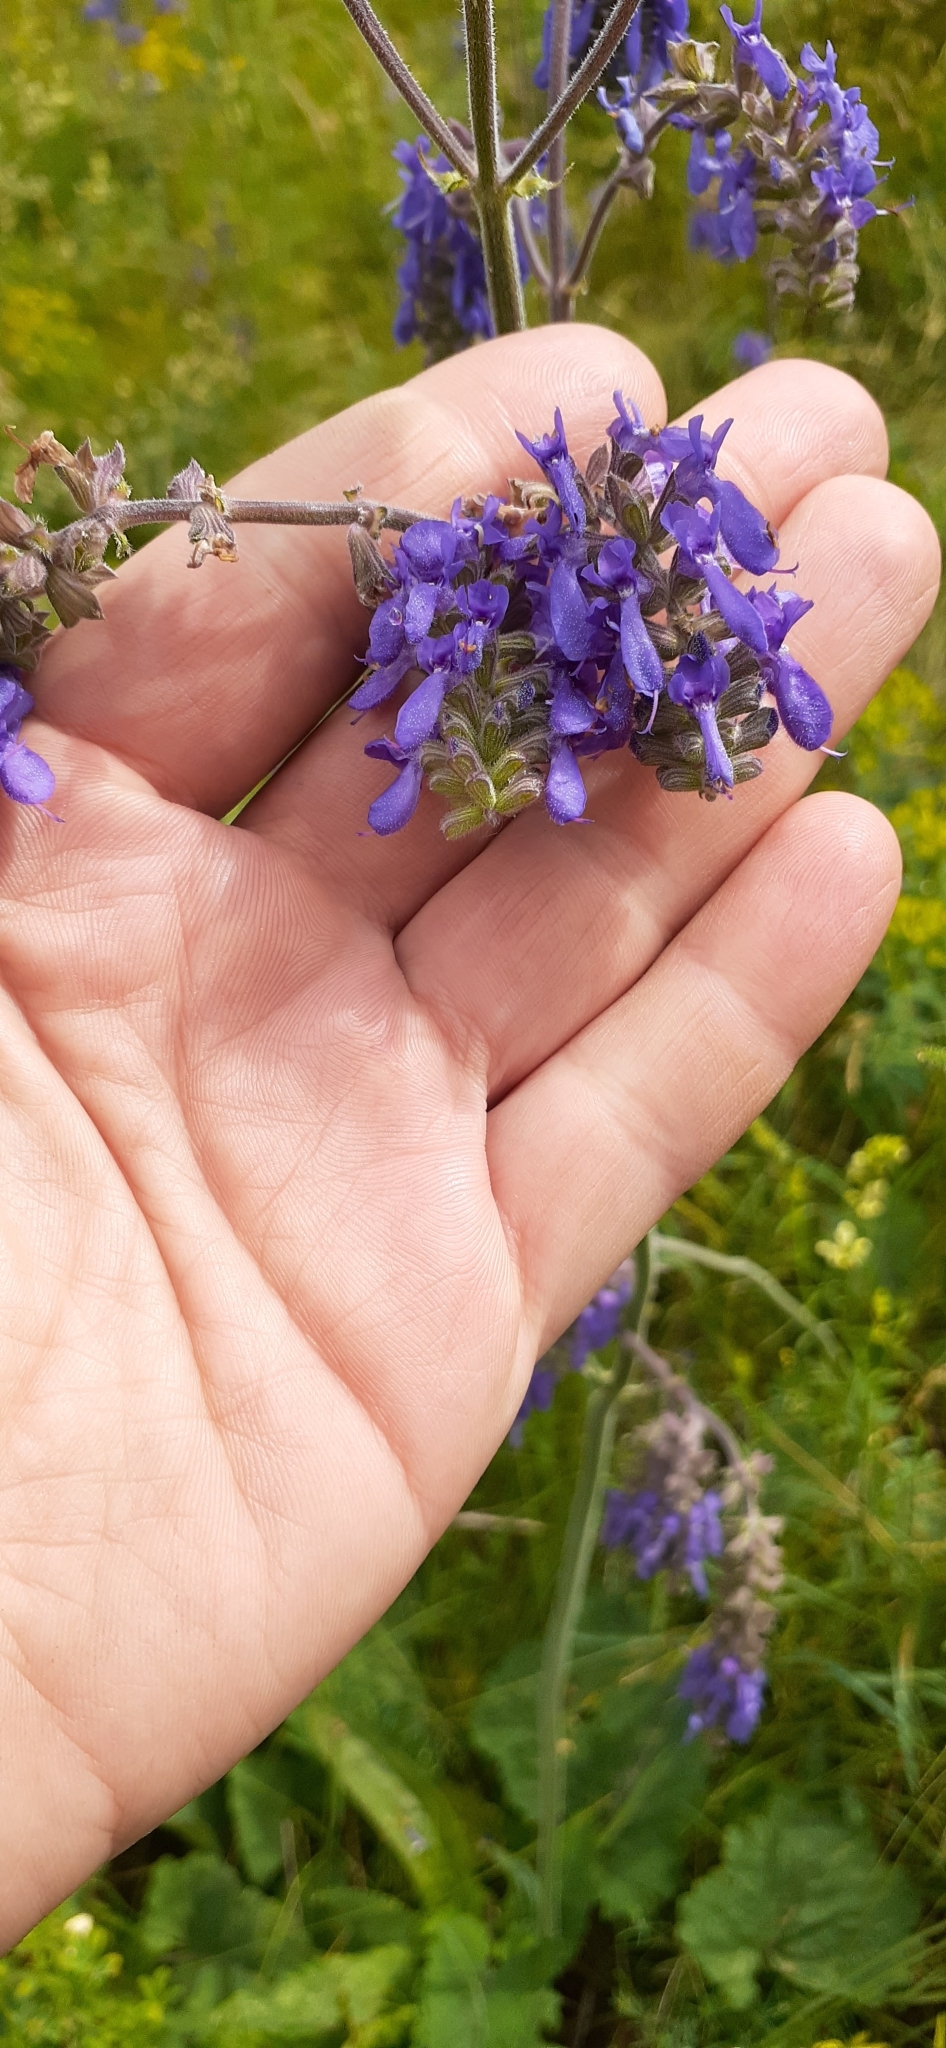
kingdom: Plantae
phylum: Tracheophyta
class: Magnoliopsida
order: Lamiales
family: Lamiaceae
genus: Salvia
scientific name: Salvia nutans
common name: Nodding sage
